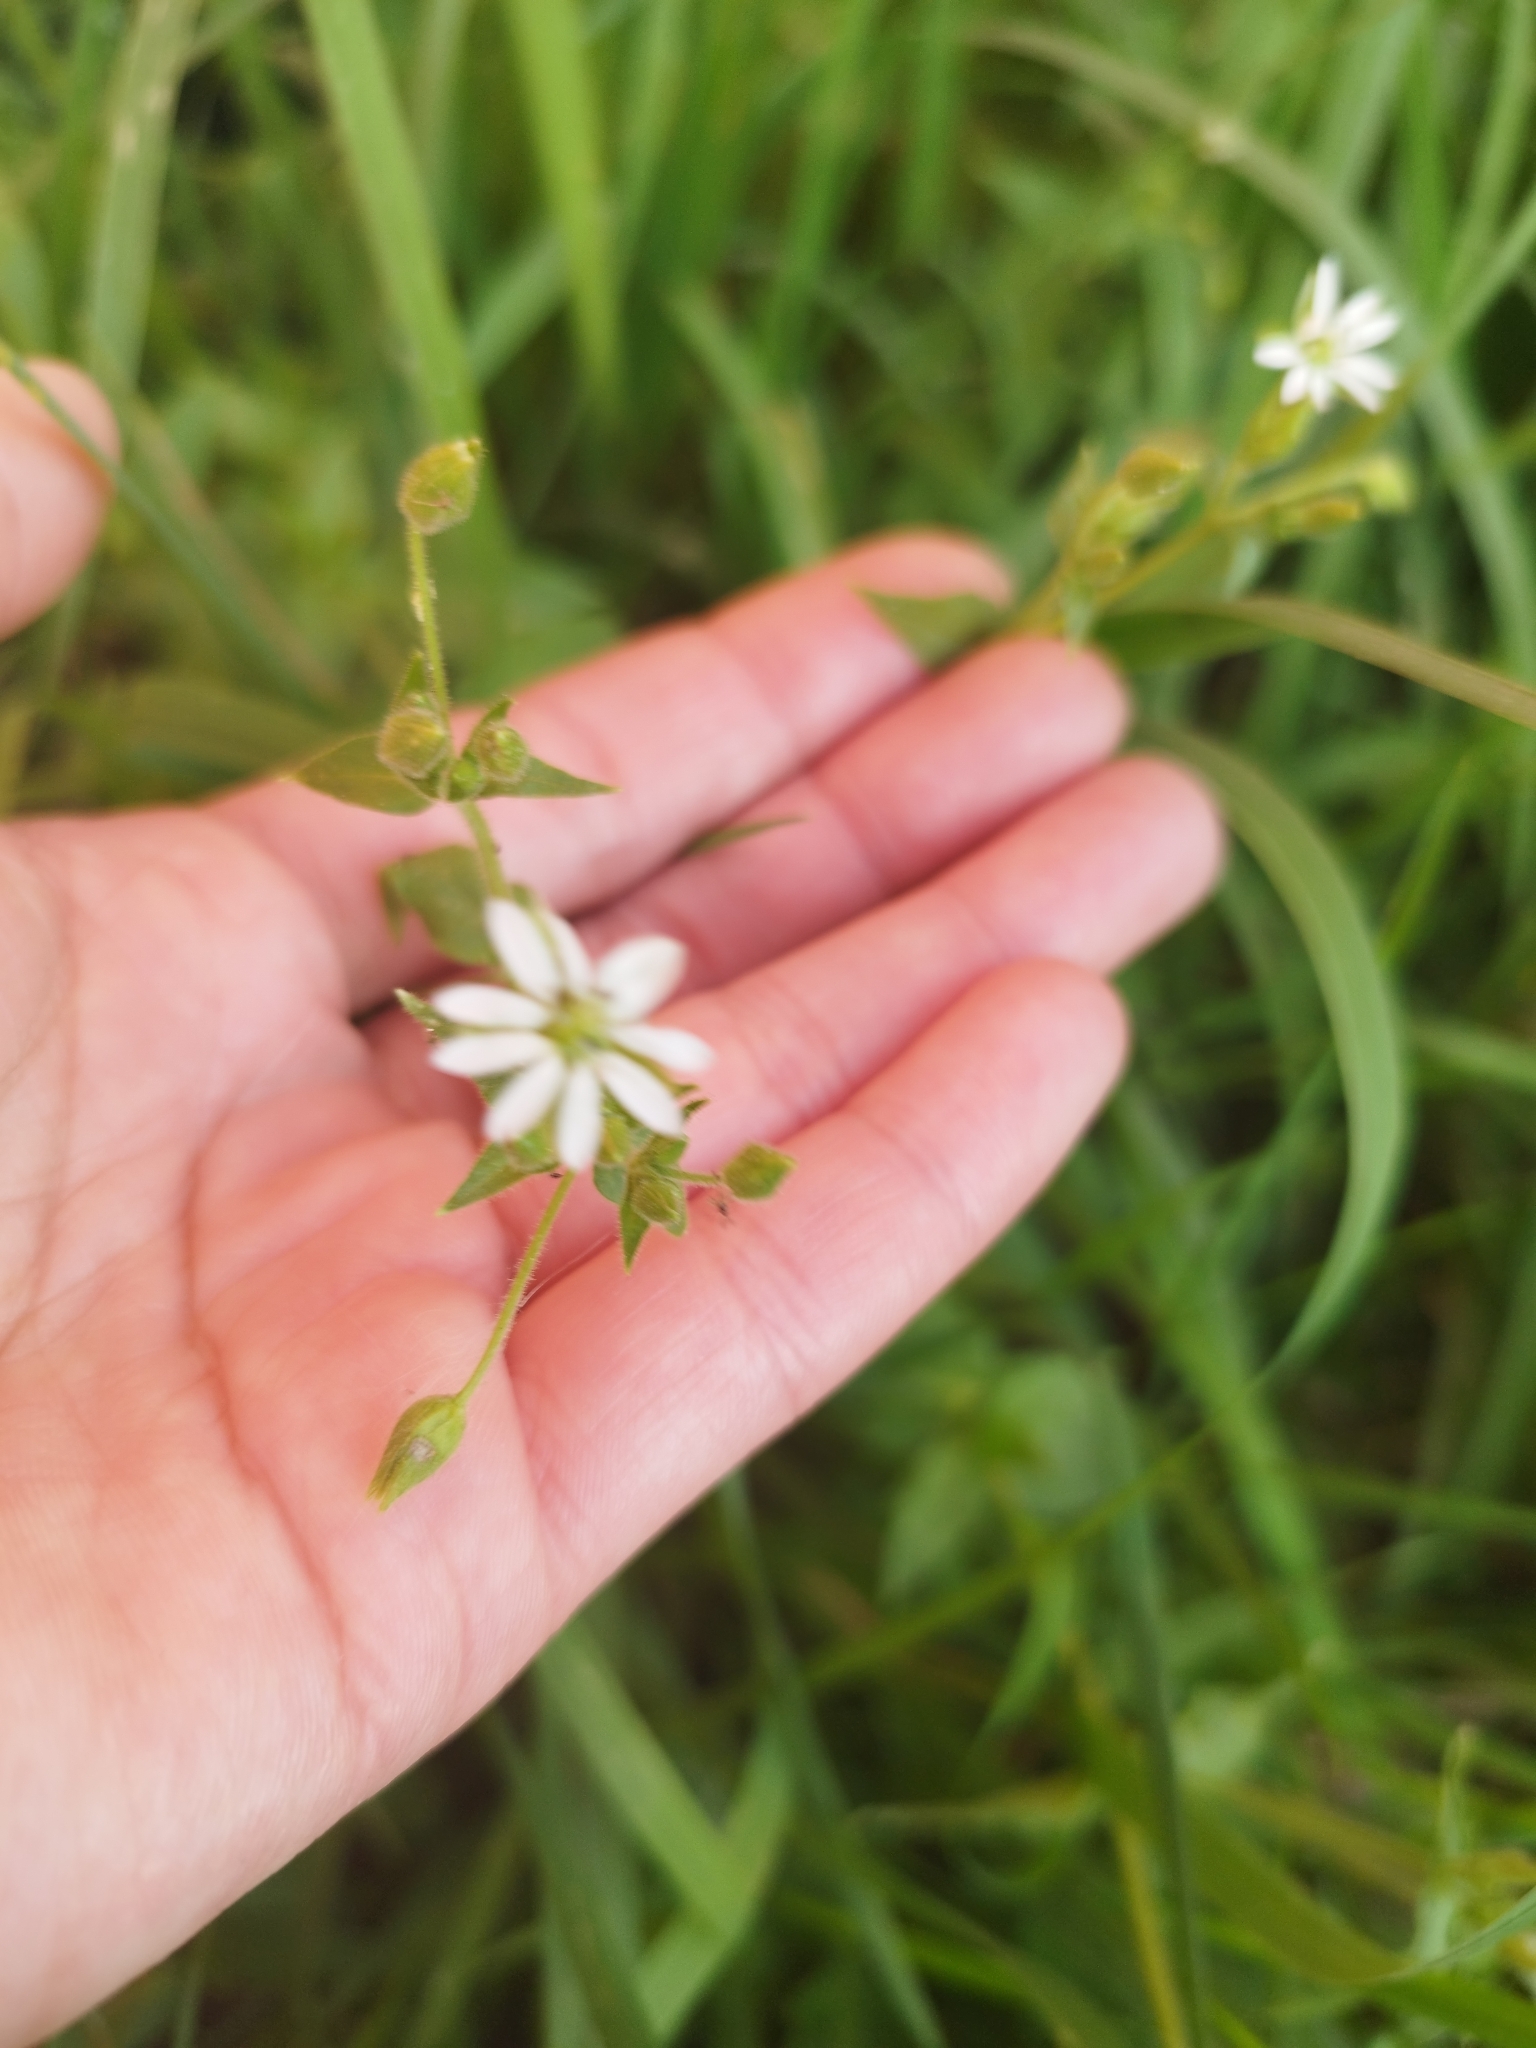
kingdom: Plantae
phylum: Tracheophyta
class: Magnoliopsida
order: Caryophyllales
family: Caryophyllaceae
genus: Stellaria
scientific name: Stellaria aquatica
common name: Water chickweed
